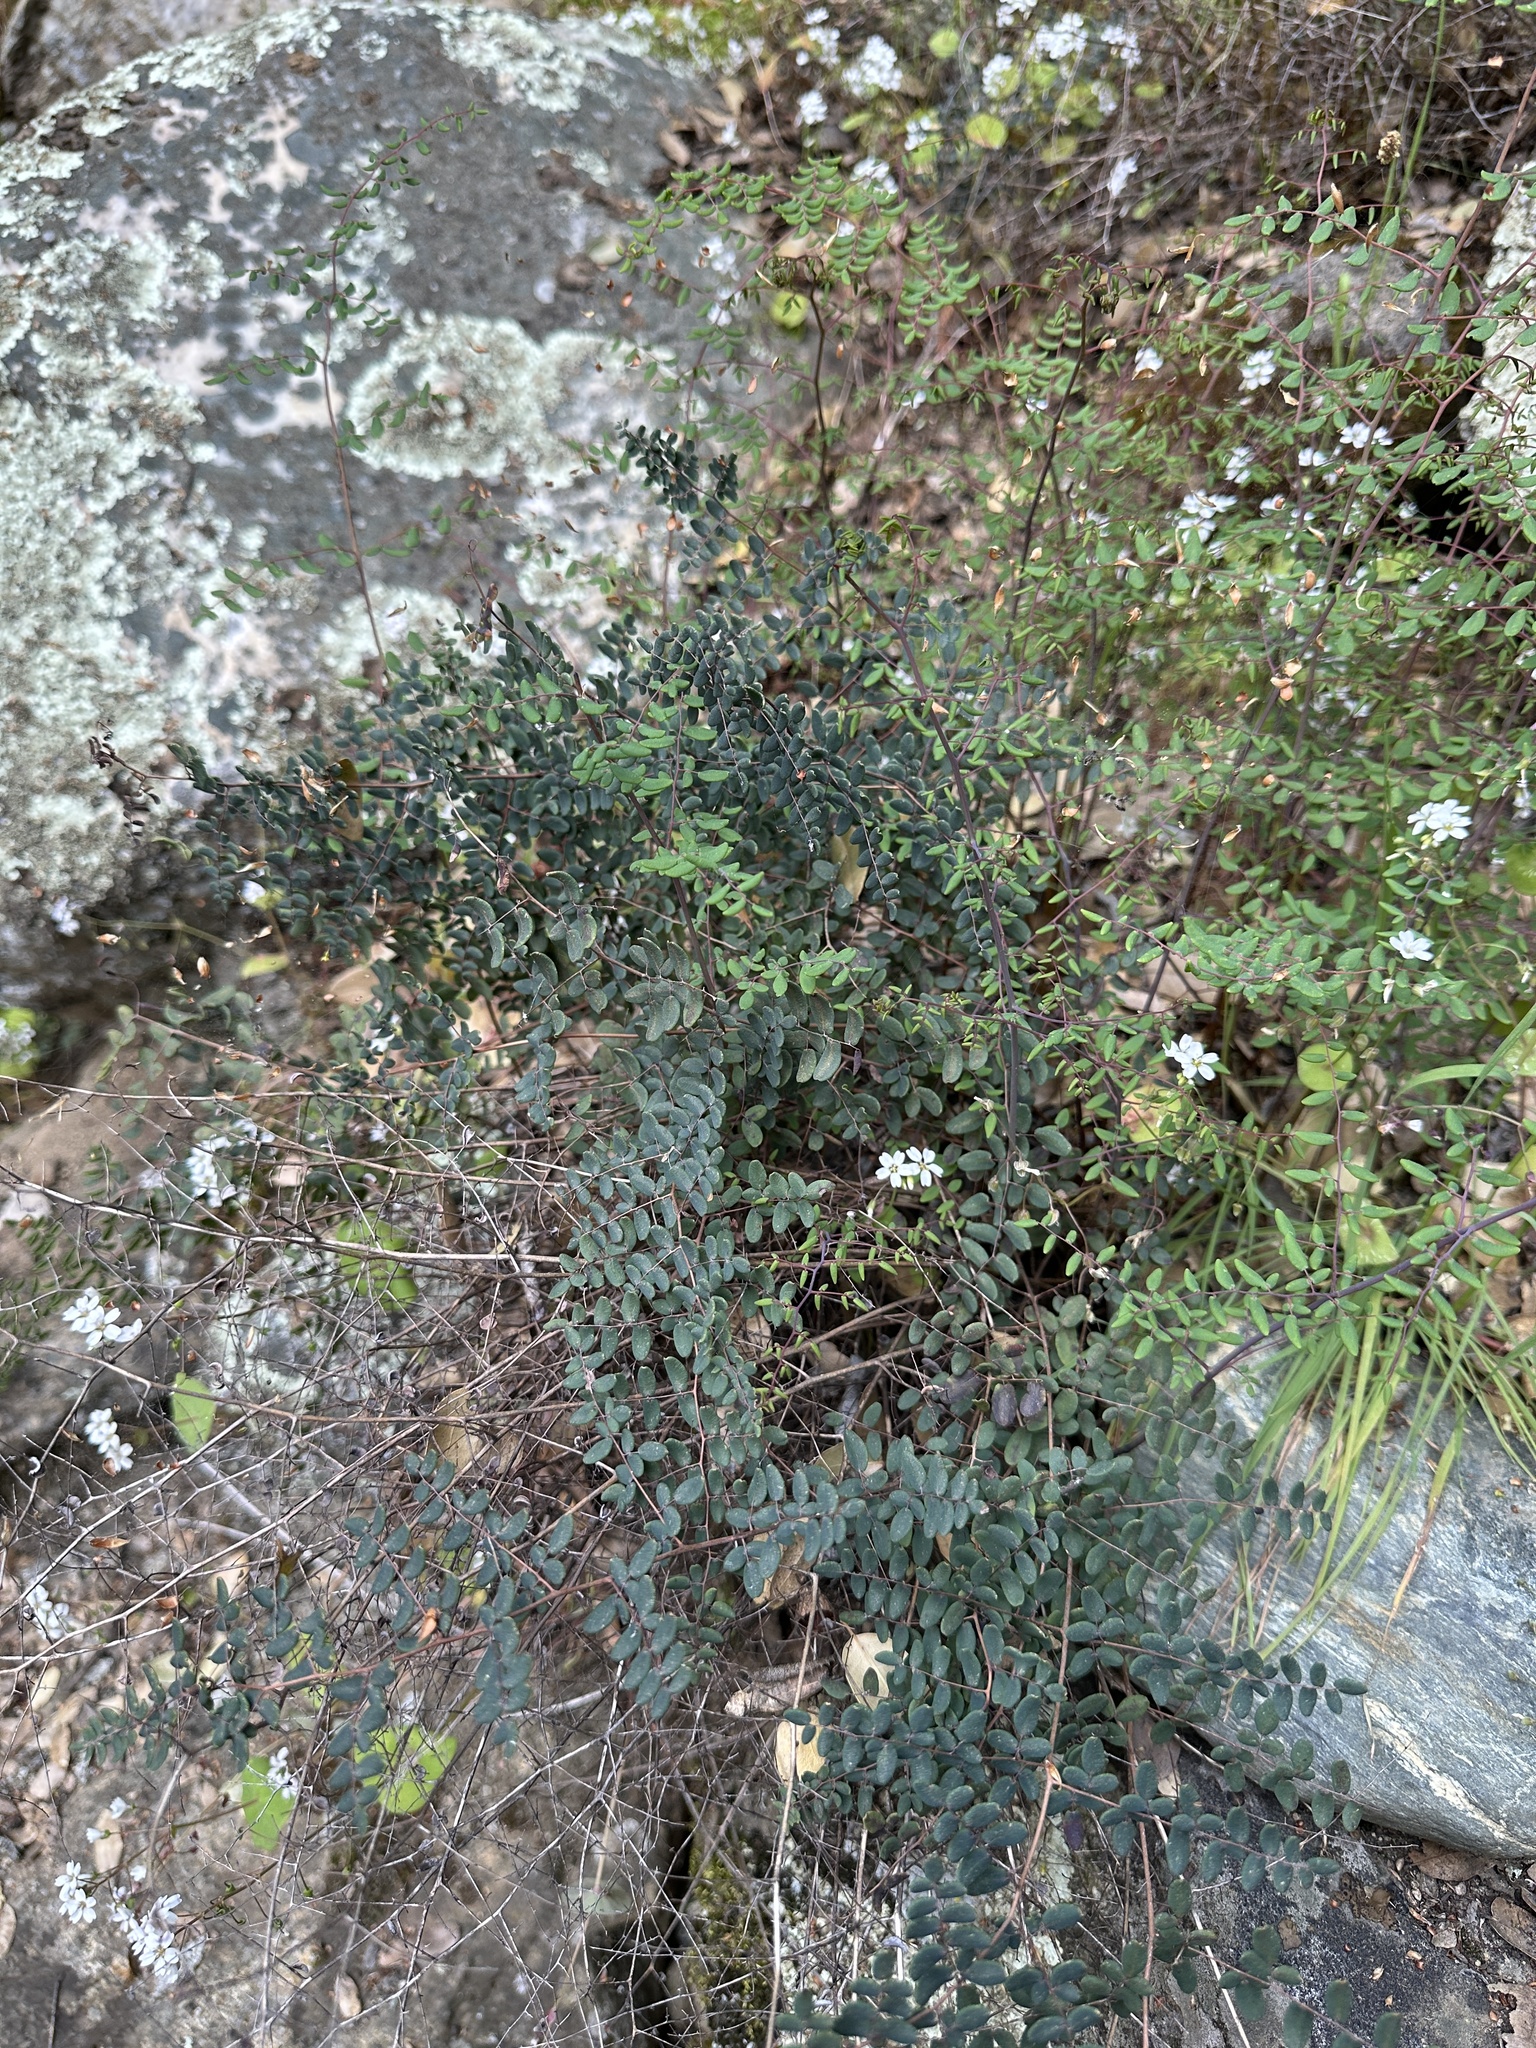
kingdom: Plantae
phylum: Tracheophyta
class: Polypodiopsida
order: Polypodiales
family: Pteridaceae
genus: Pellaea
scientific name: Pellaea andromedifolia
